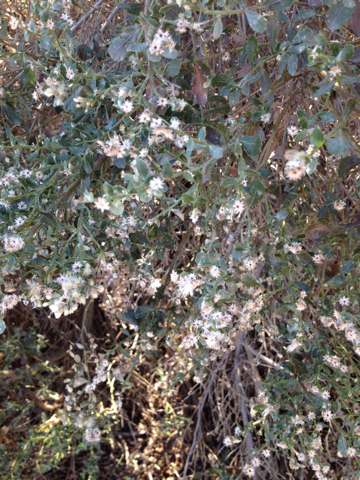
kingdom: Plantae
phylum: Tracheophyta
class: Magnoliopsida
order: Asterales
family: Asteraceae
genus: Baccharis
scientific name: Baccharis pilularis
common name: Coyotebrush
